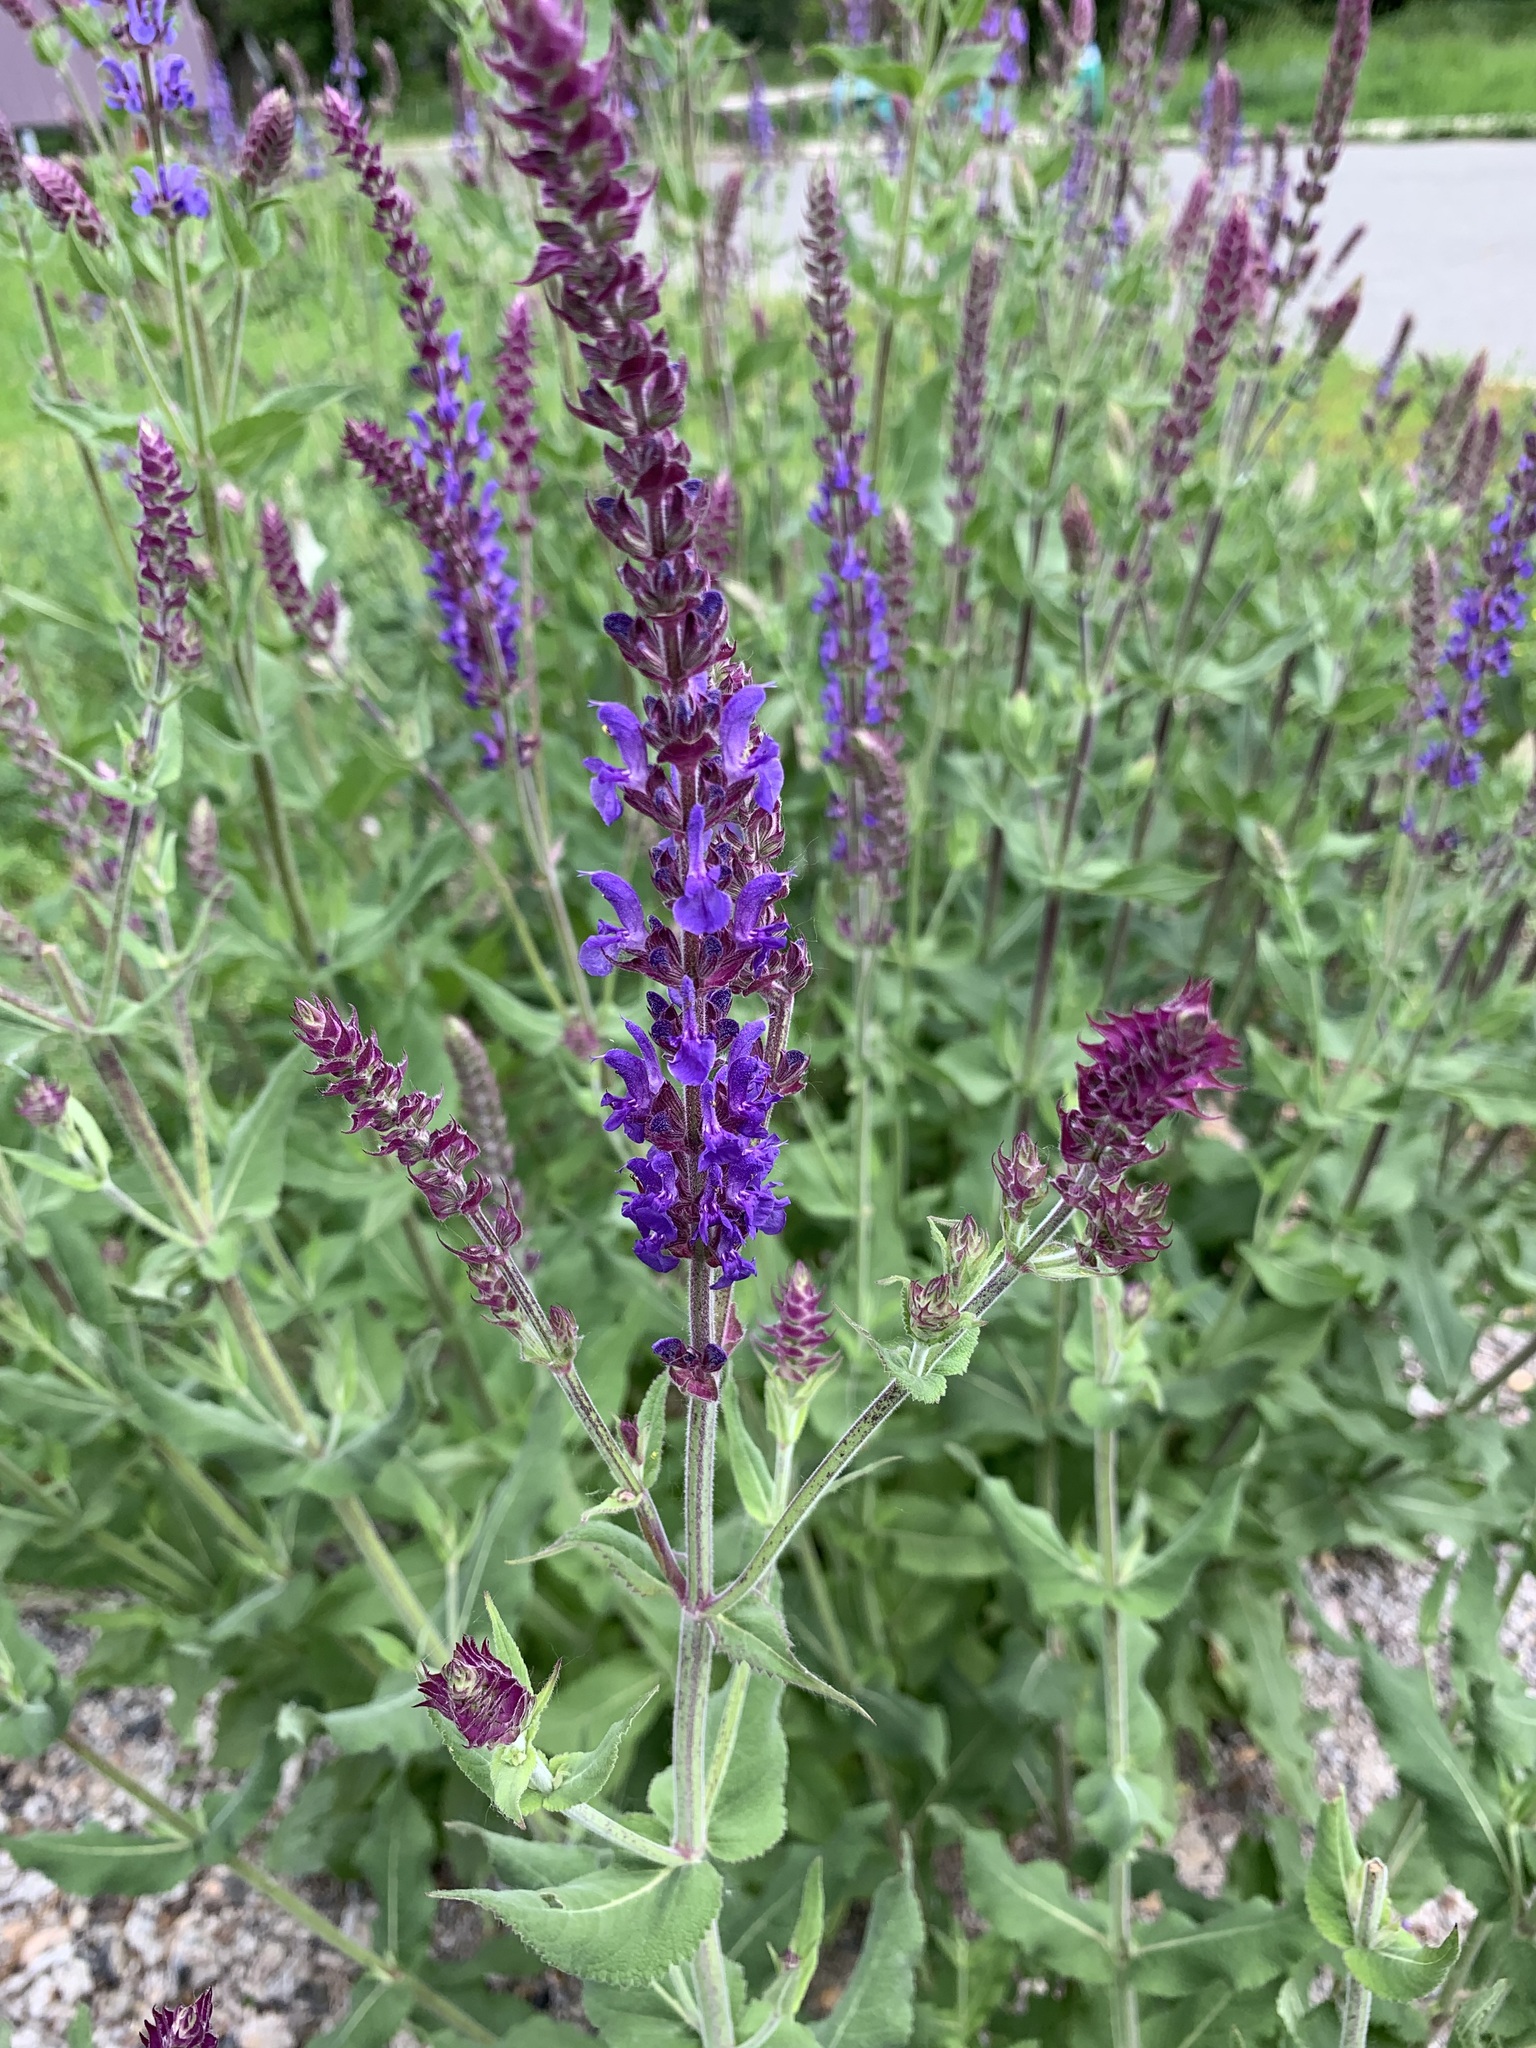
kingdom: Plantae
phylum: Tracheophyta
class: Magnoliopsida
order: Lamiales
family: Lamiaceae
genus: Salvia
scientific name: Salvia nemorosa
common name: Balkan clary
